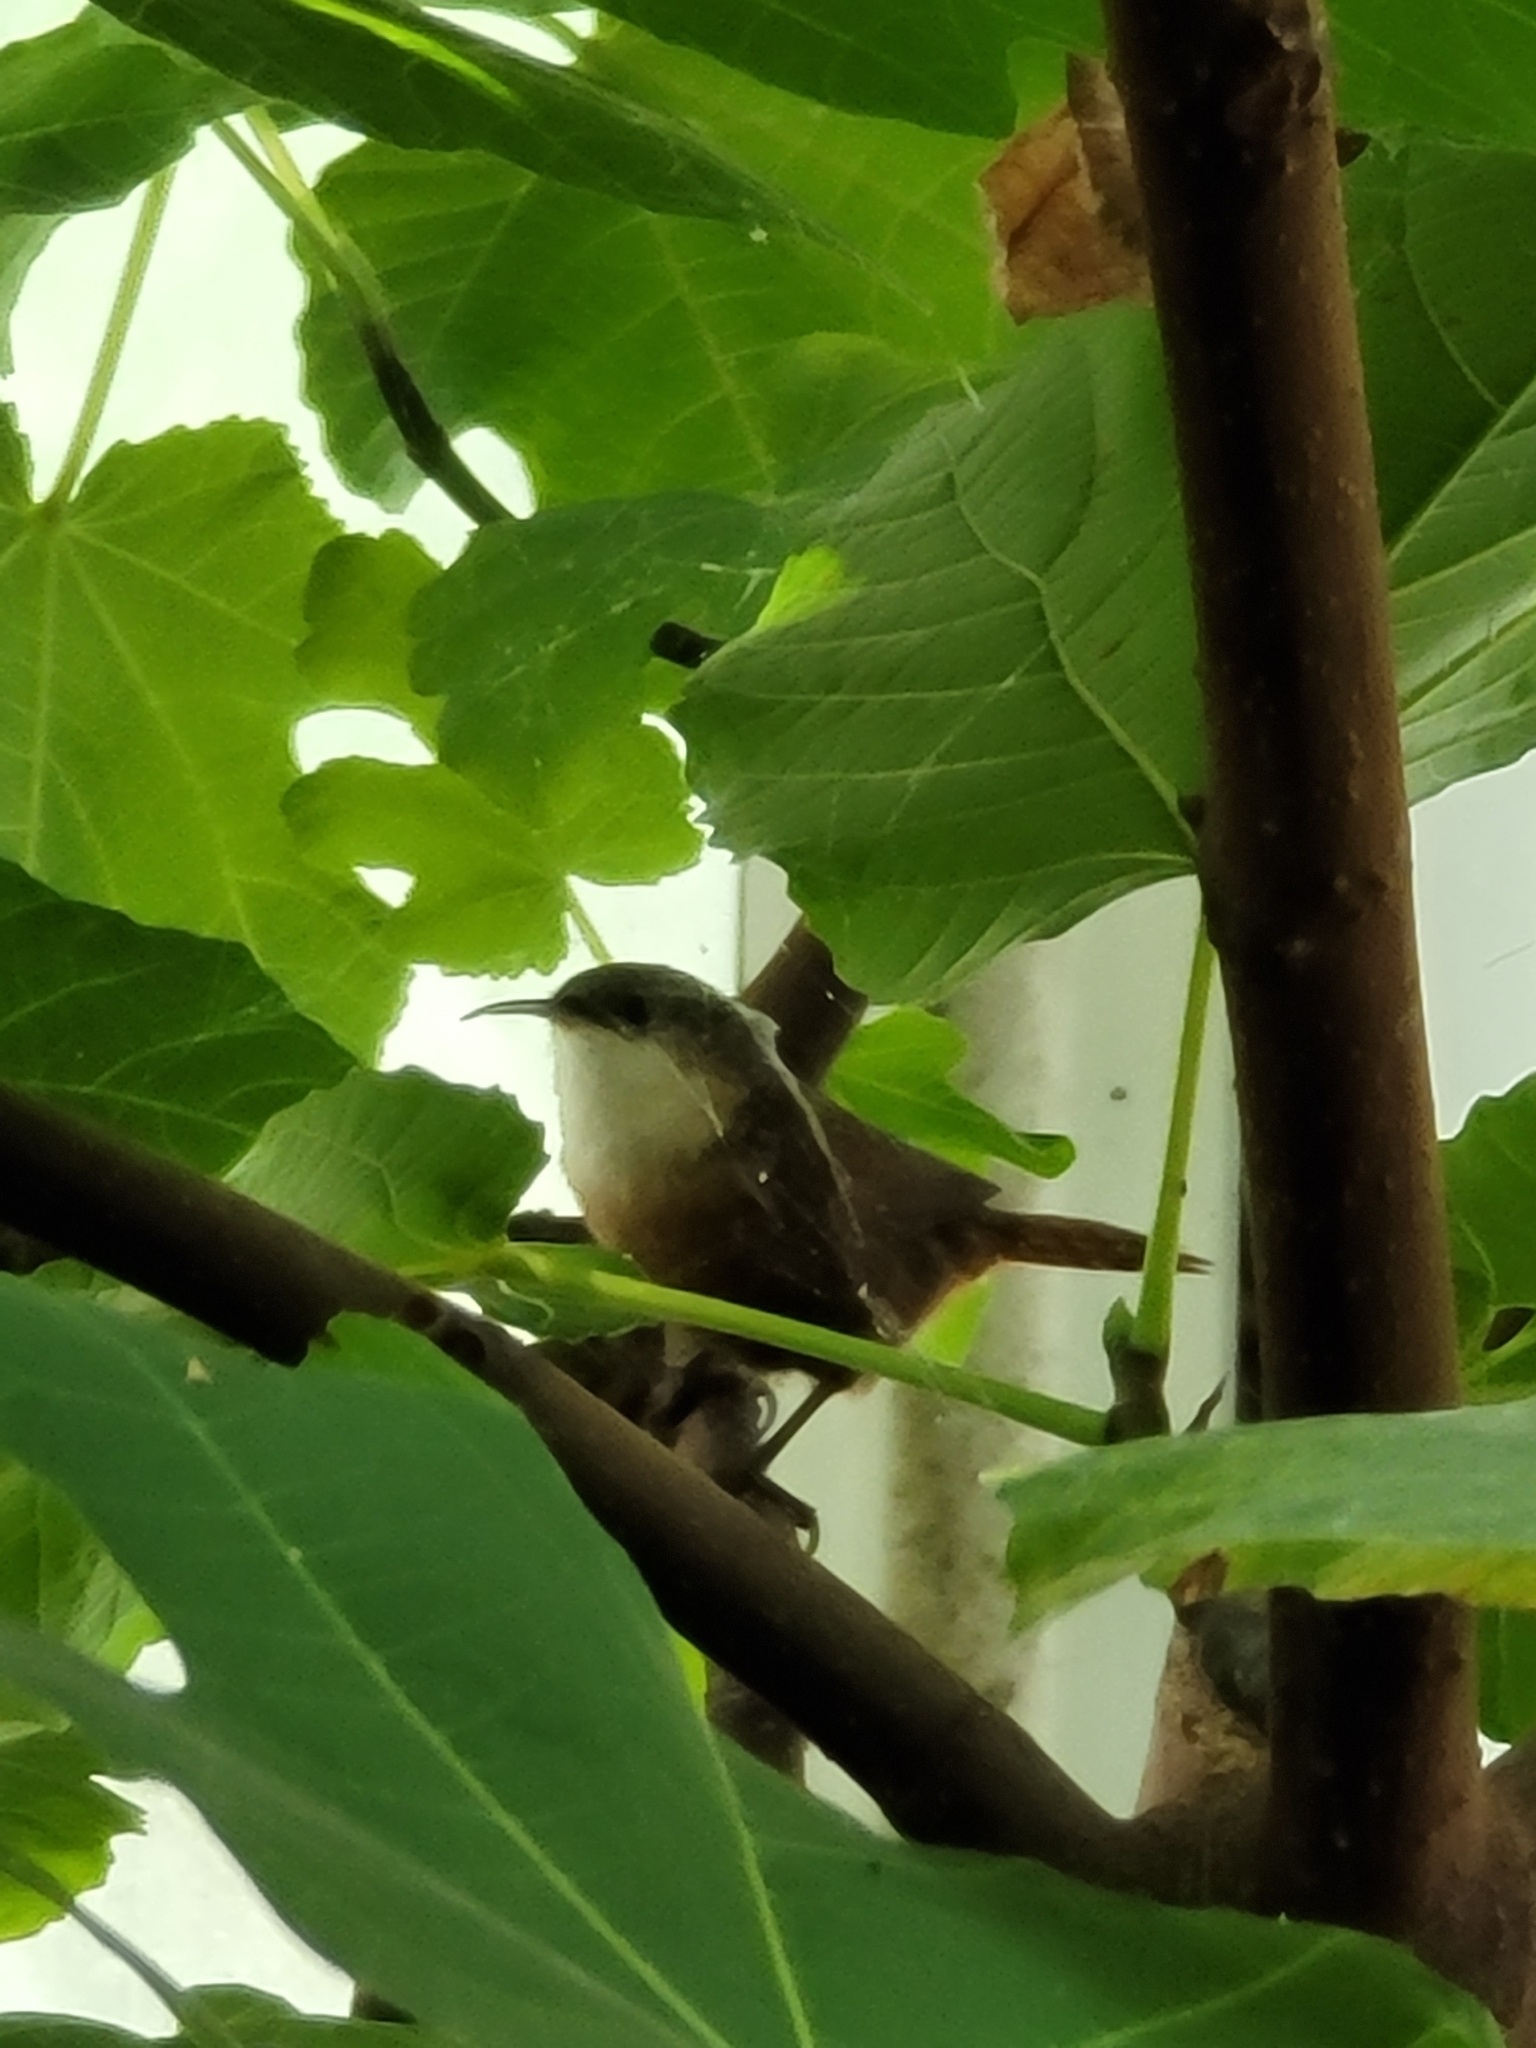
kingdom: Animalia
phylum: Chordata
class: Aves
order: Passeriformes
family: Troglodytidae
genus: Catherpes
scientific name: Catherpes mexicanus
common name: Canyon wren
